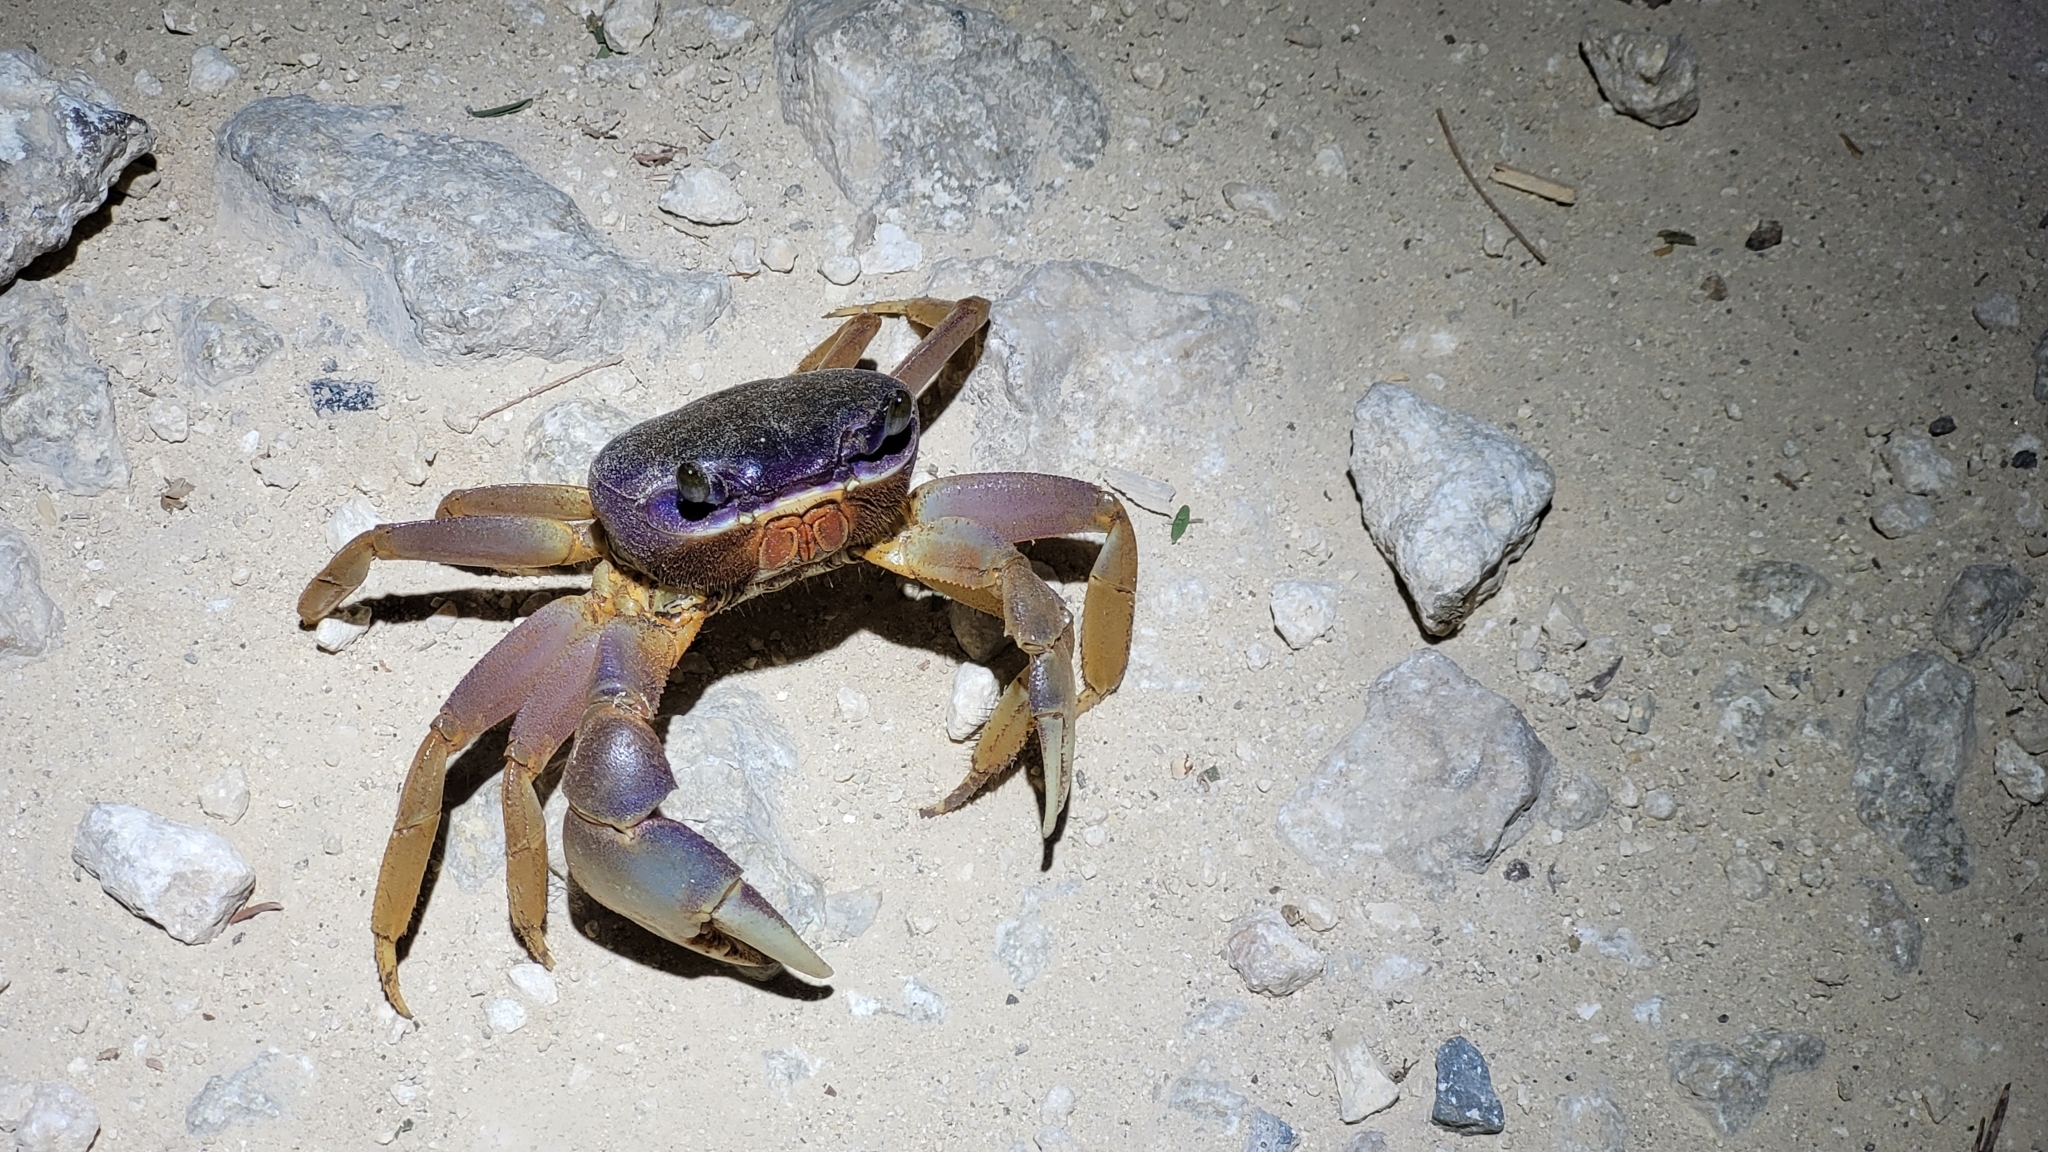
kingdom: Animalia
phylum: Arthropoda
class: Malacostraca
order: Decapoda
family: Gecarcinidae
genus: Cardisoma
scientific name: Cardisoma guanhumi
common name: Great land crab
